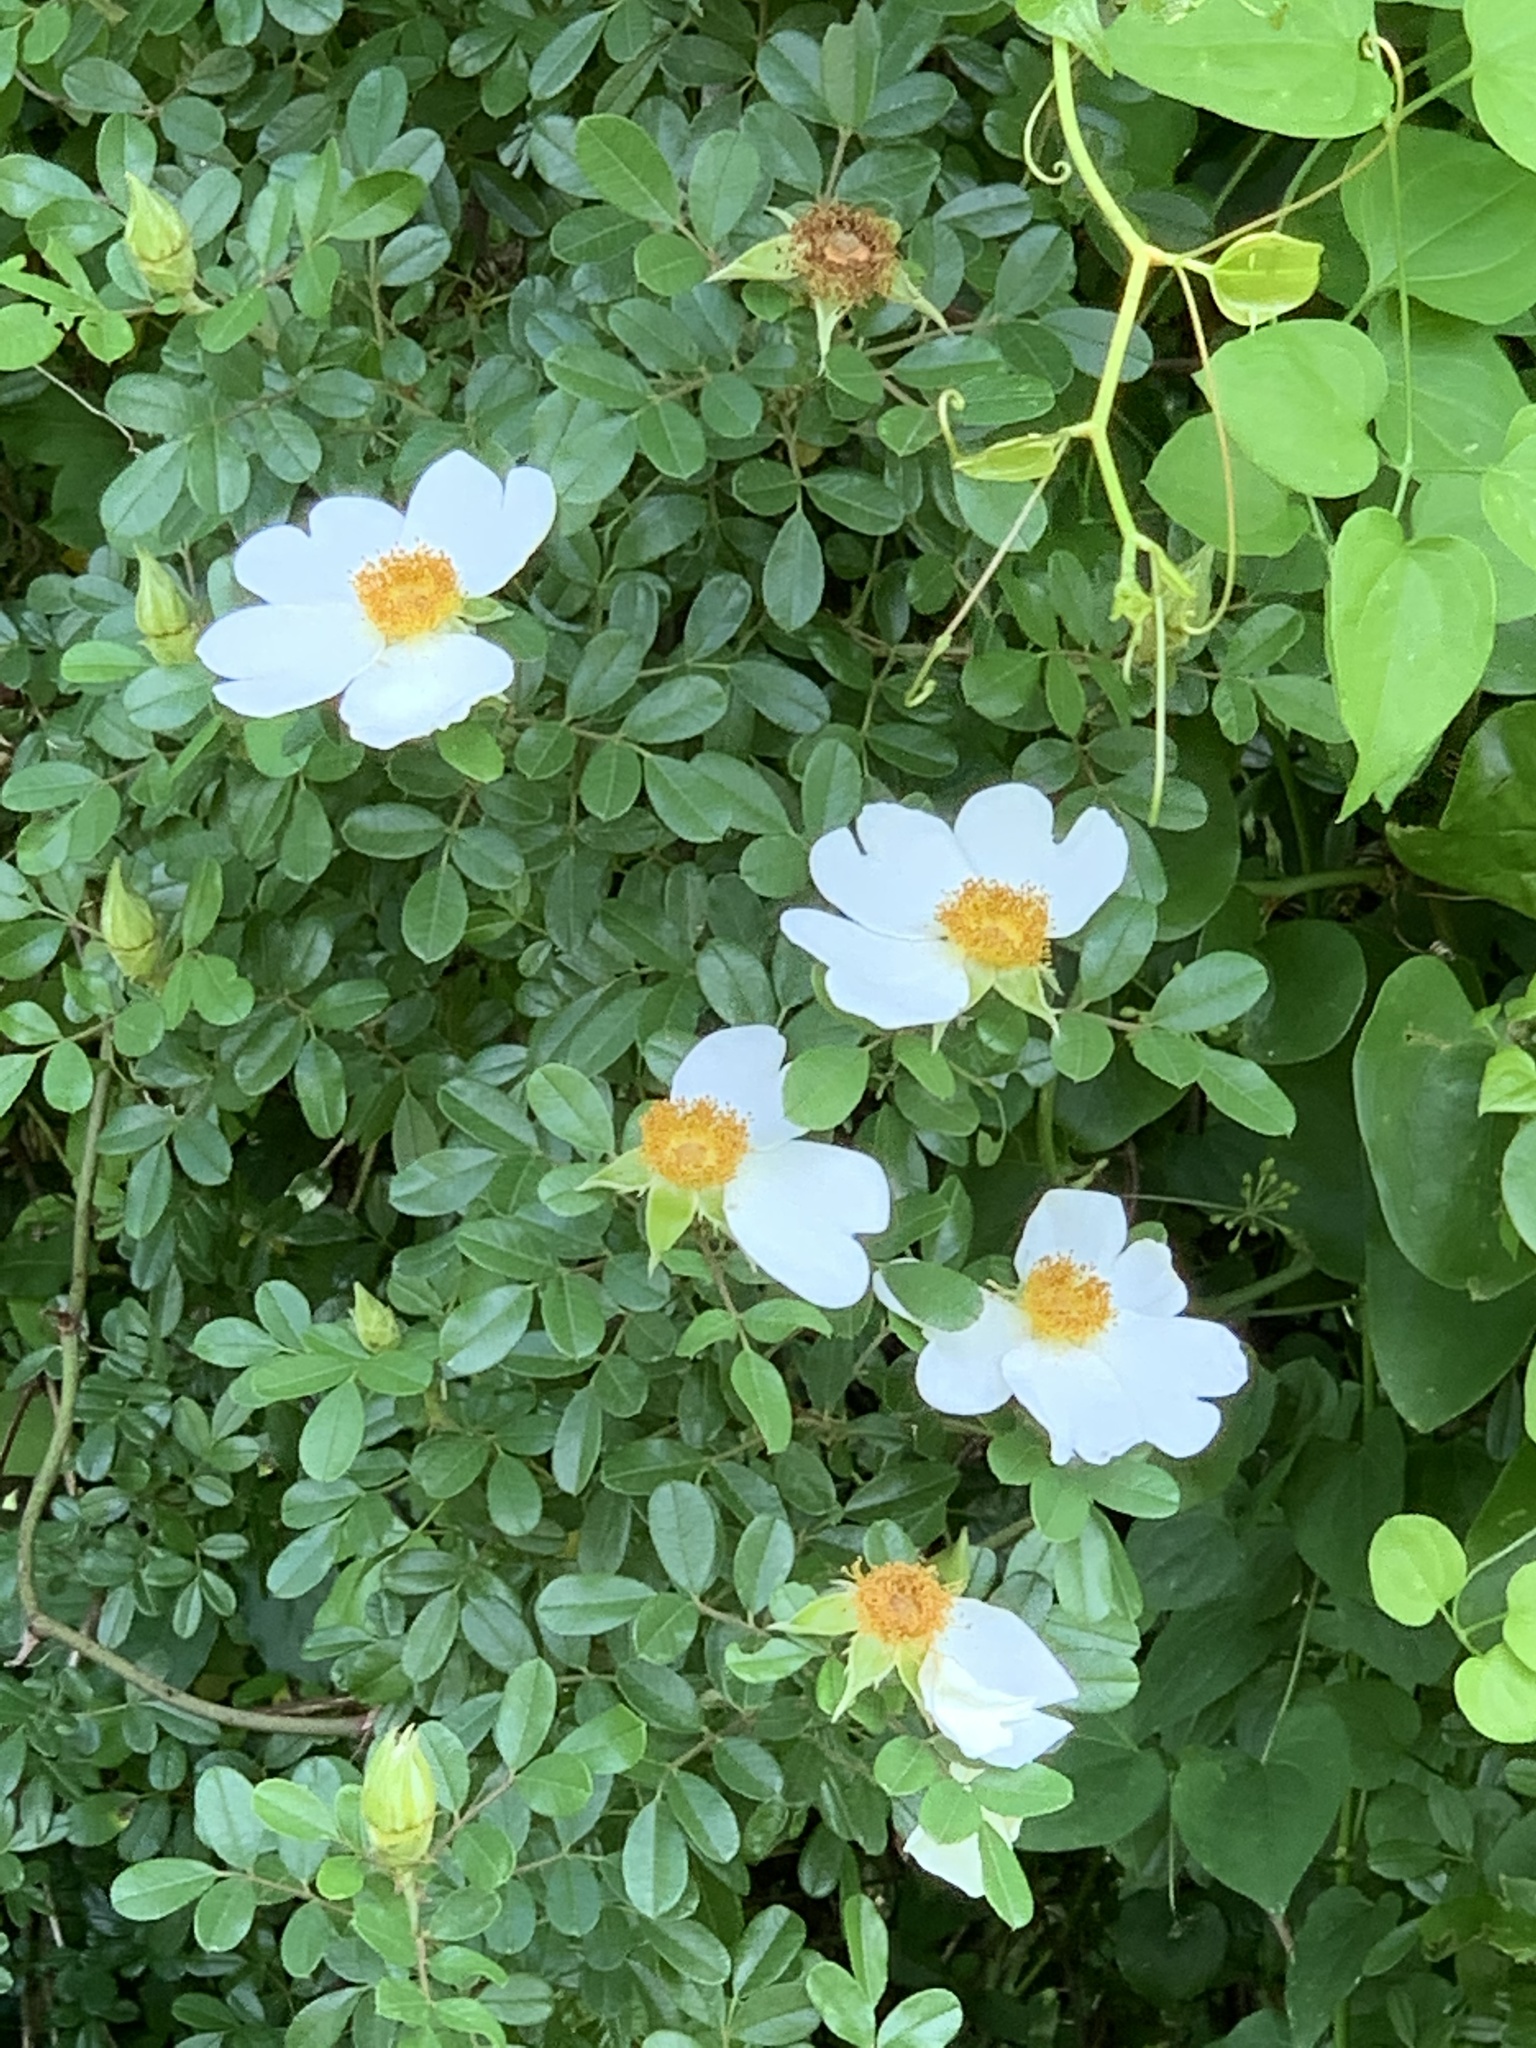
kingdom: Plantae
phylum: Tracheophyta
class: Magnoliopsida
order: Rosales
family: Rosaceae
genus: Rosa
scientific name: Rosa bracteata
